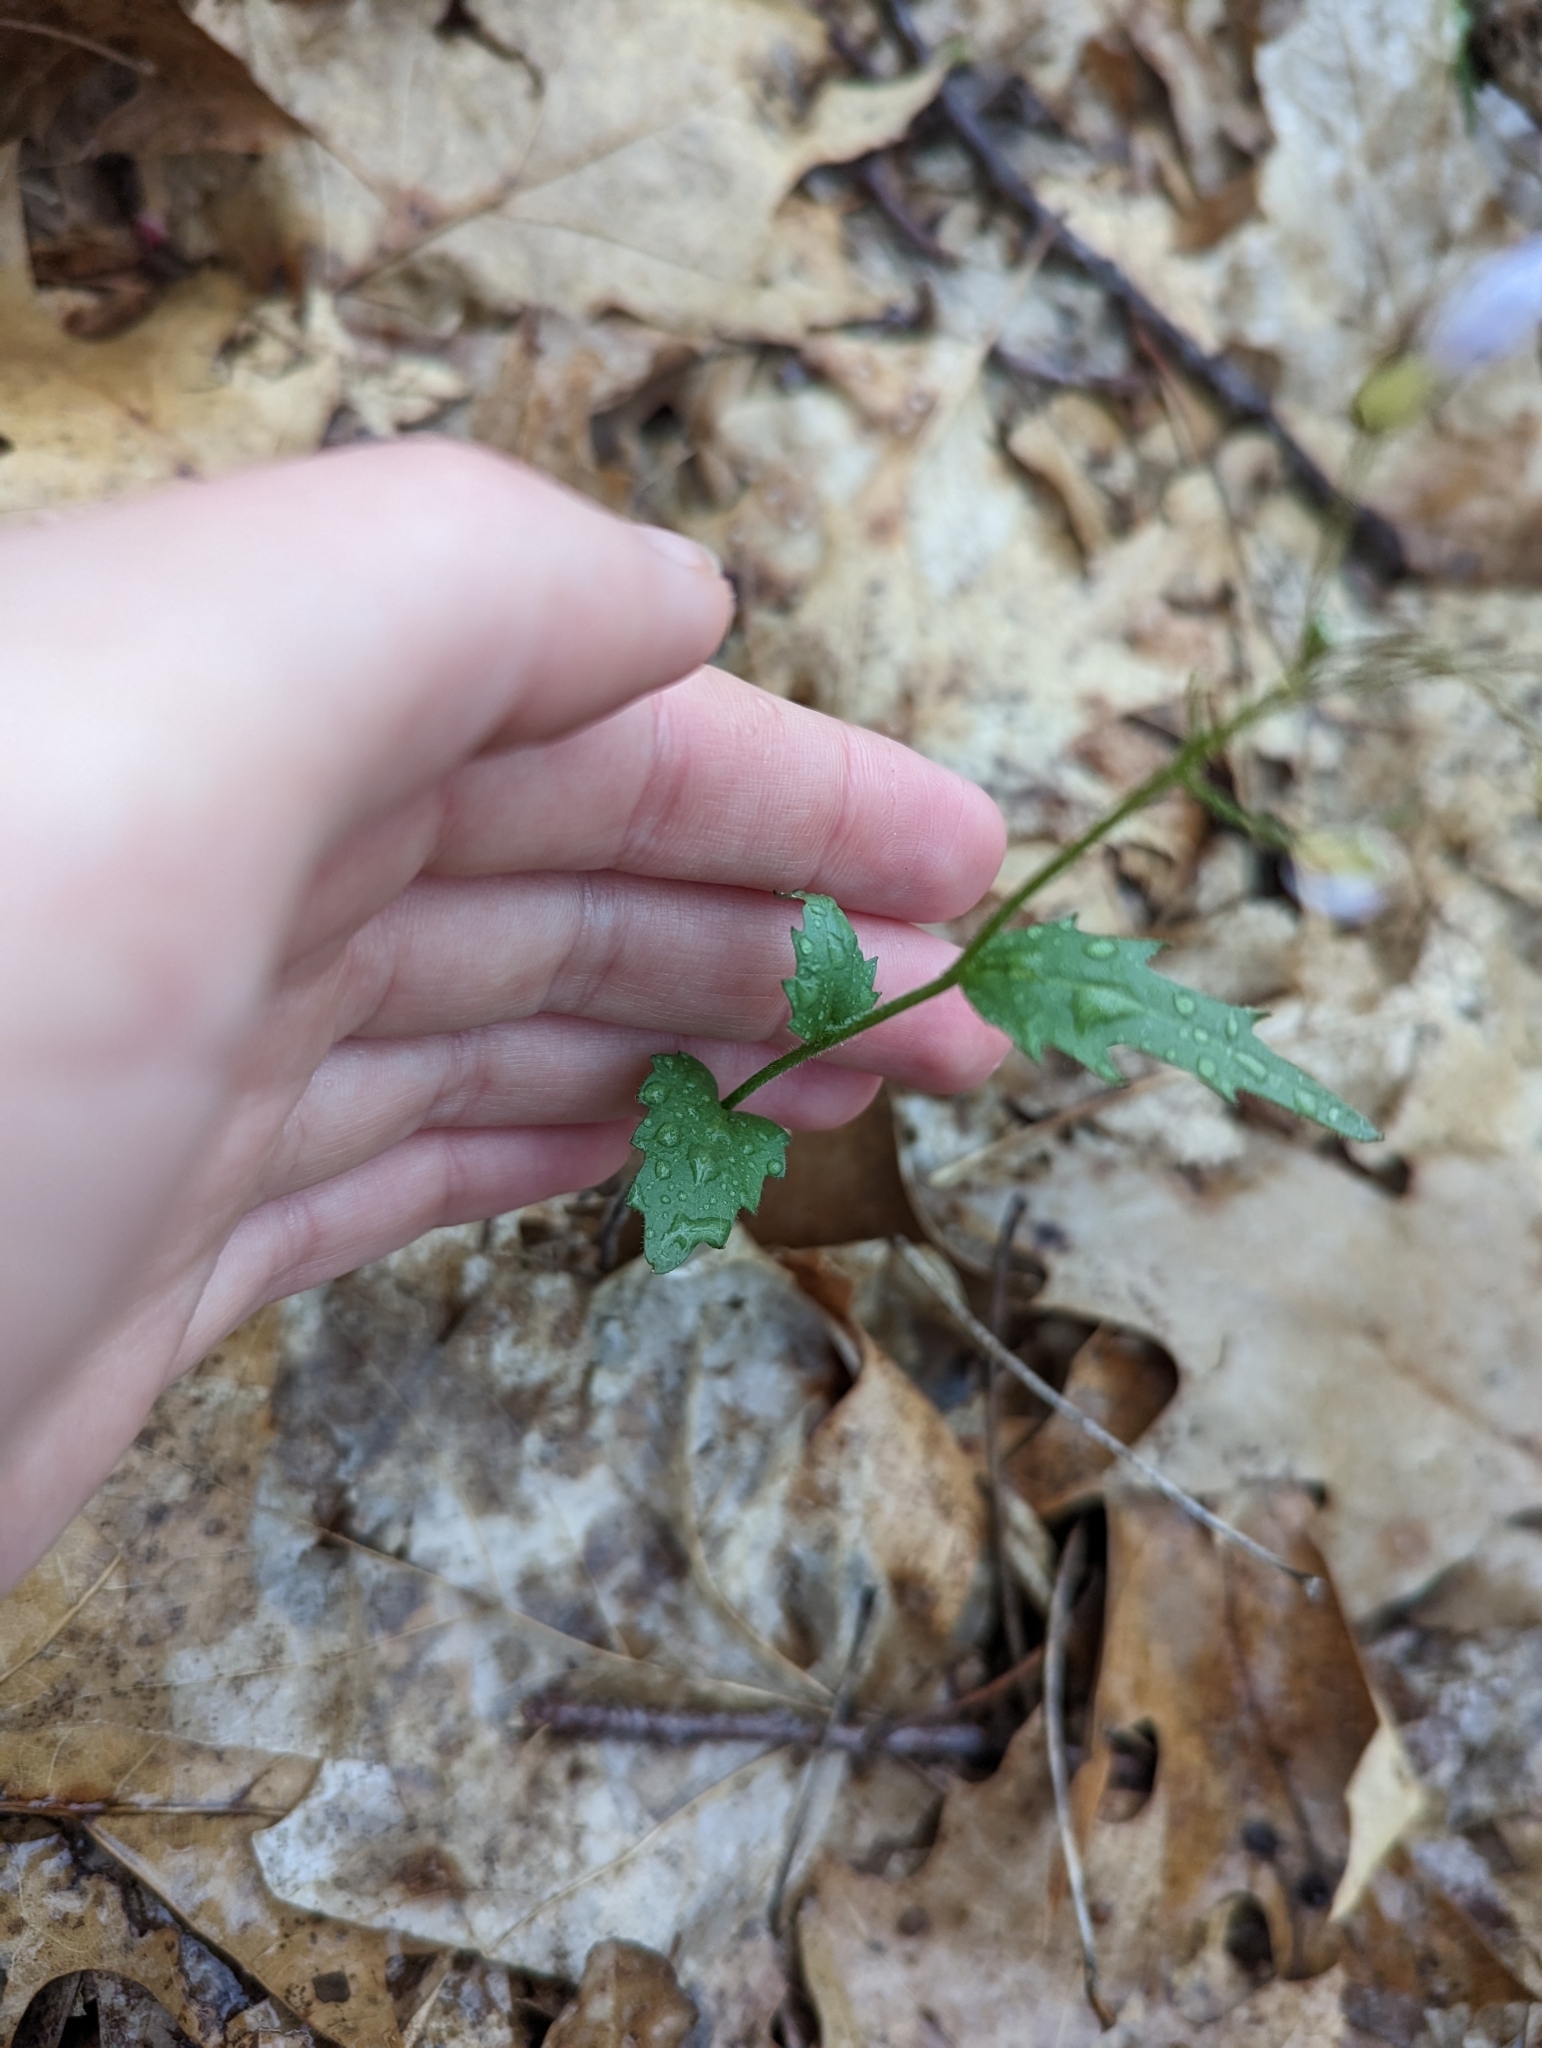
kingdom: Plantae
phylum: Tracheophyta
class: Magnoliopsida
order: Brassicales
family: Brassicaceae
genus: Cardamine
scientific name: Cardamine douglassii
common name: Purple cress
